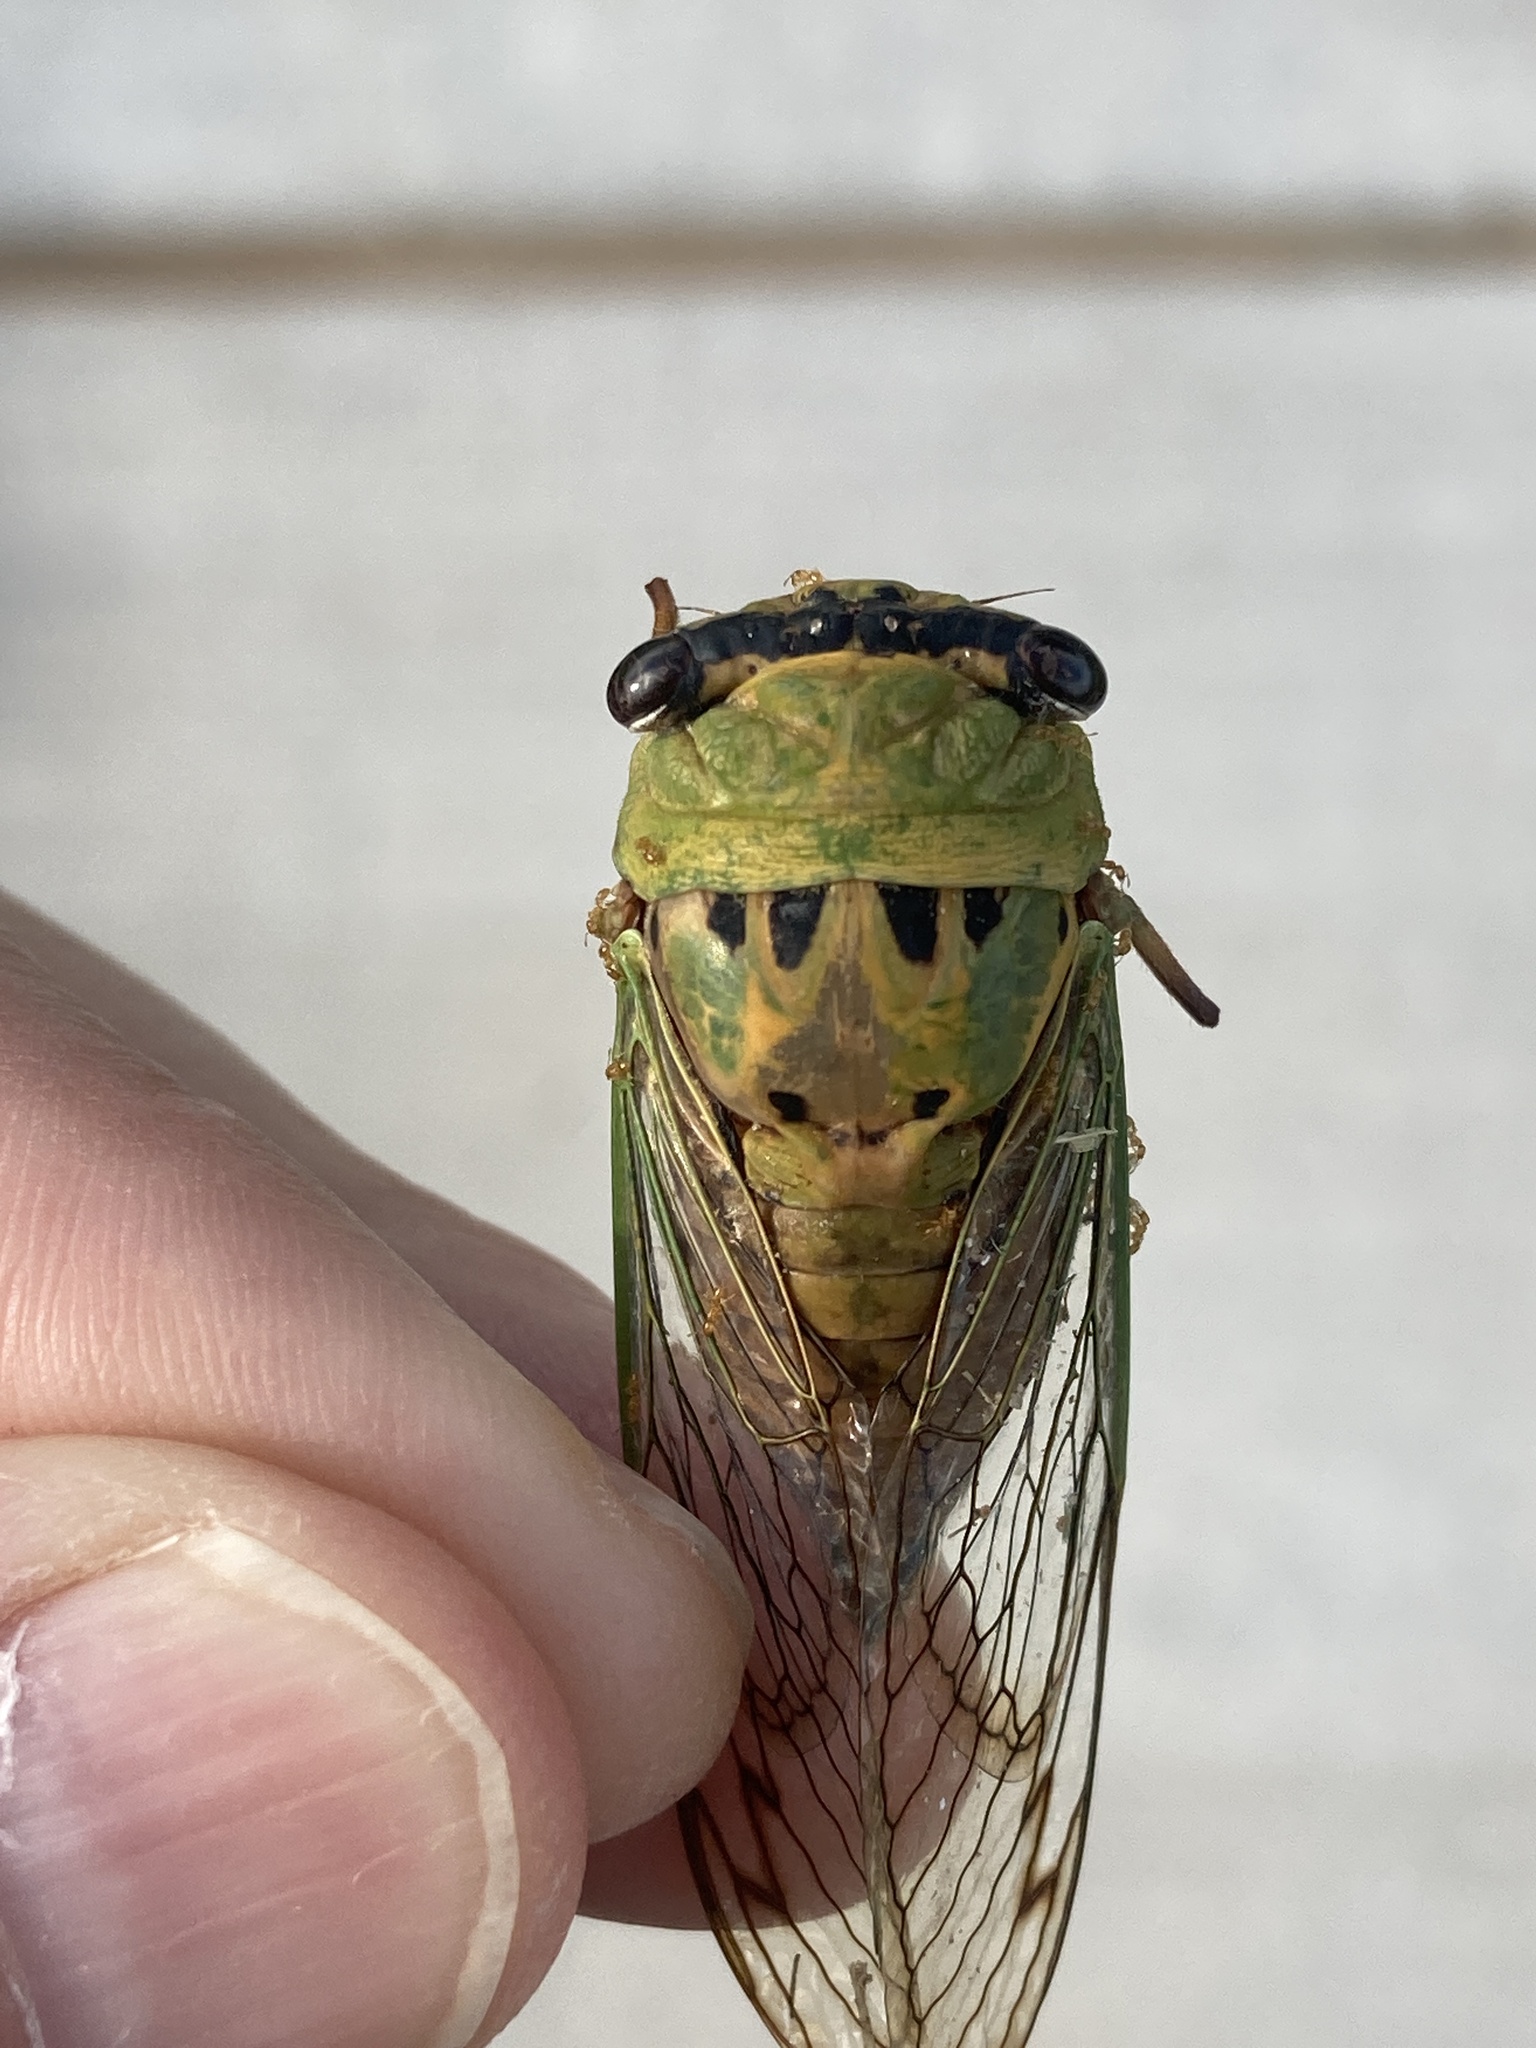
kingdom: Animalia
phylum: Arthropoda
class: Insecta
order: Hemiptera
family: Cicadidae
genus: Neotibicen
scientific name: Neotibicen superbus
